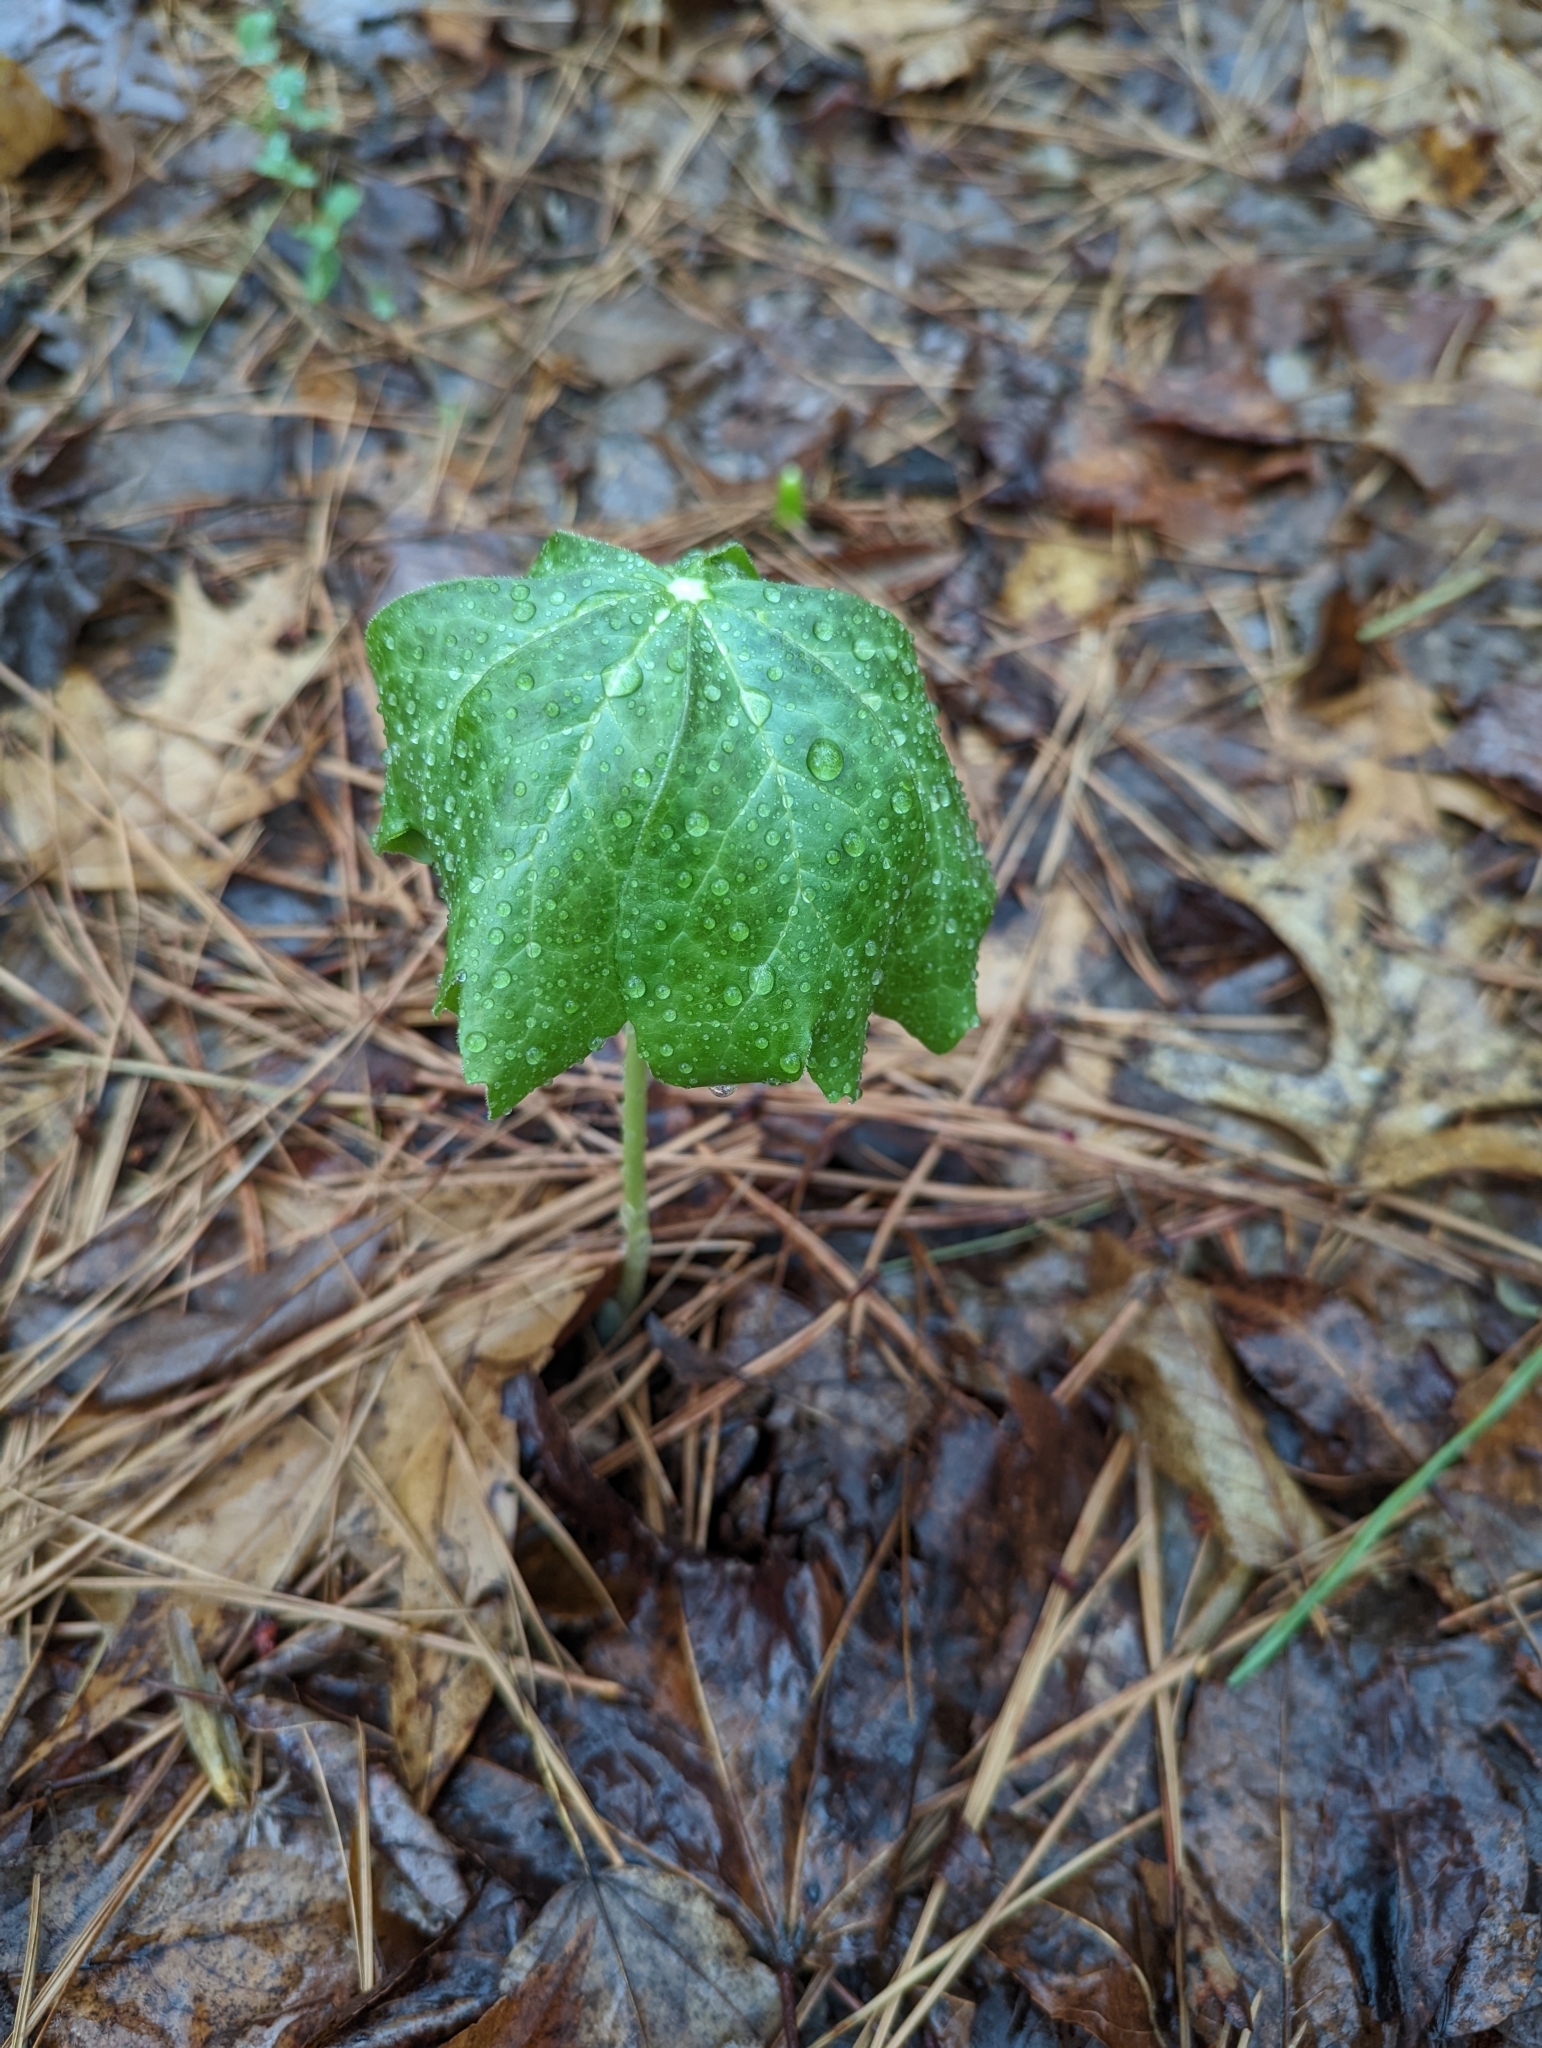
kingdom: Plantae
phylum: Tracheophyta
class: Magnoliopsida
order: Ranunculales
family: Berberidaceae
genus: Podophyllum
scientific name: Podophyllum peltatum
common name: Wild mandrake
